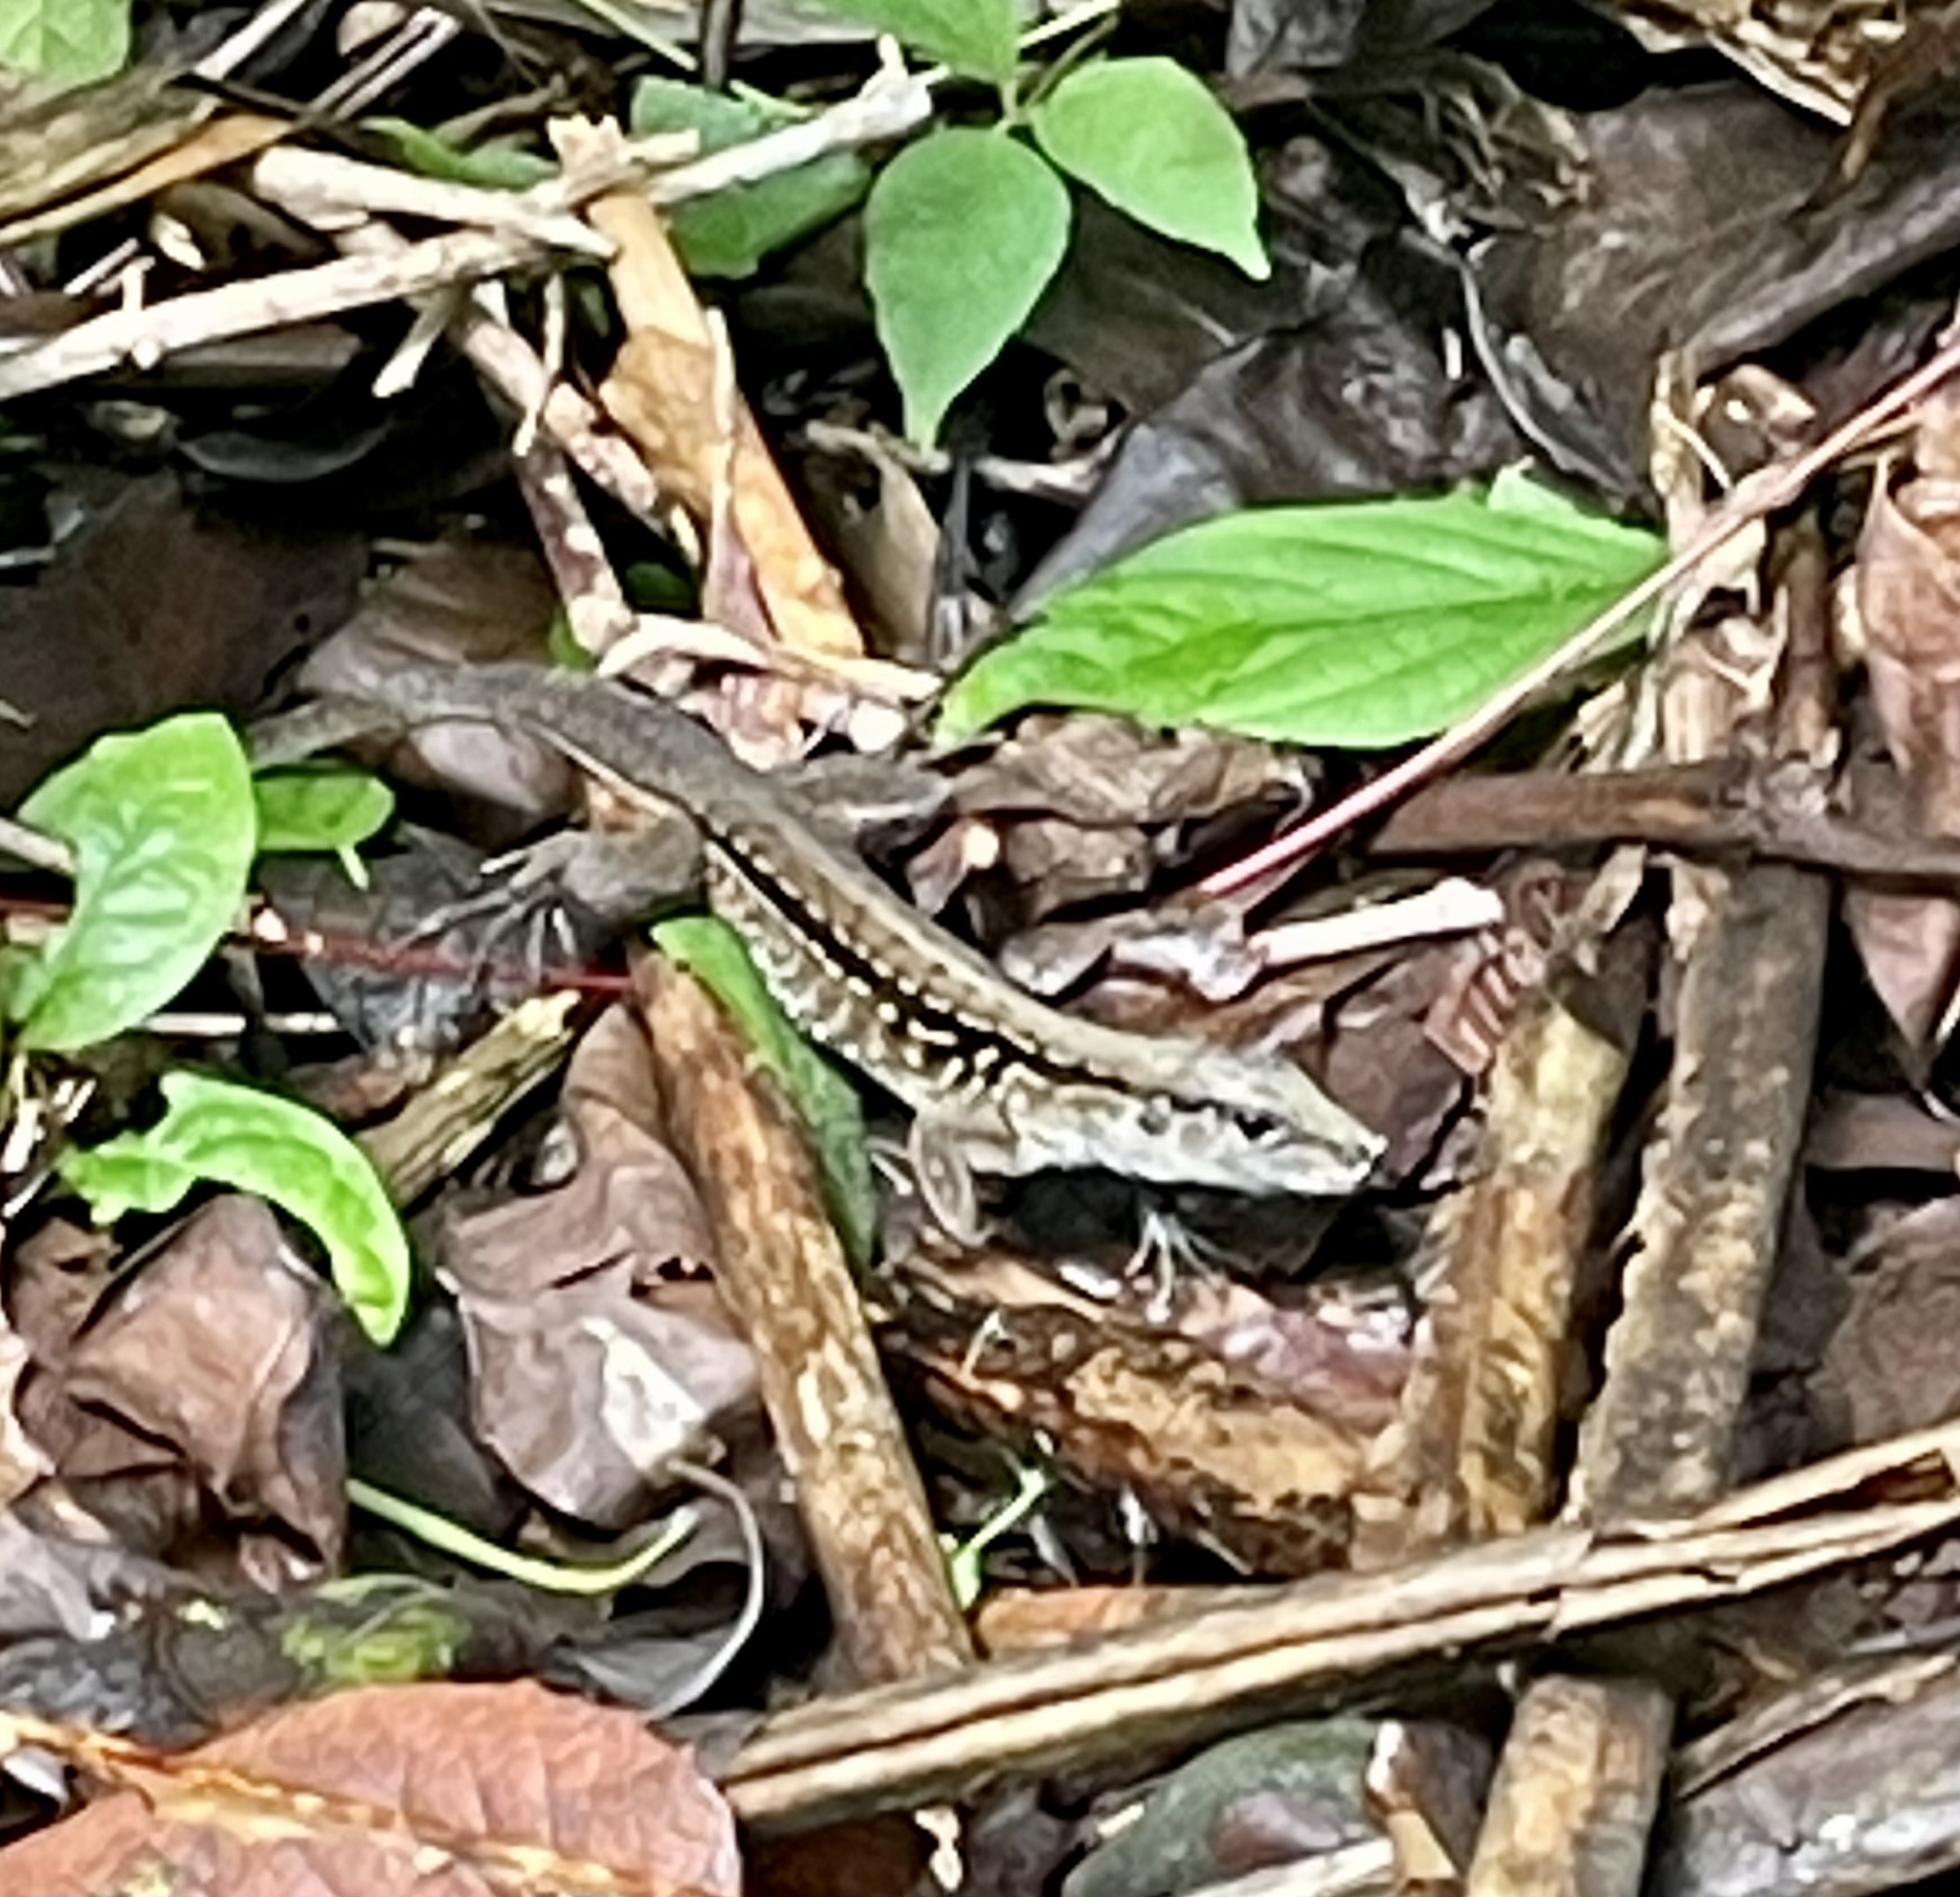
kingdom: Animalia
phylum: Chordata
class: Squamata
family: Teiidae
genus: Holcosus
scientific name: Holcosus festivus
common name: Middle american ameiva
